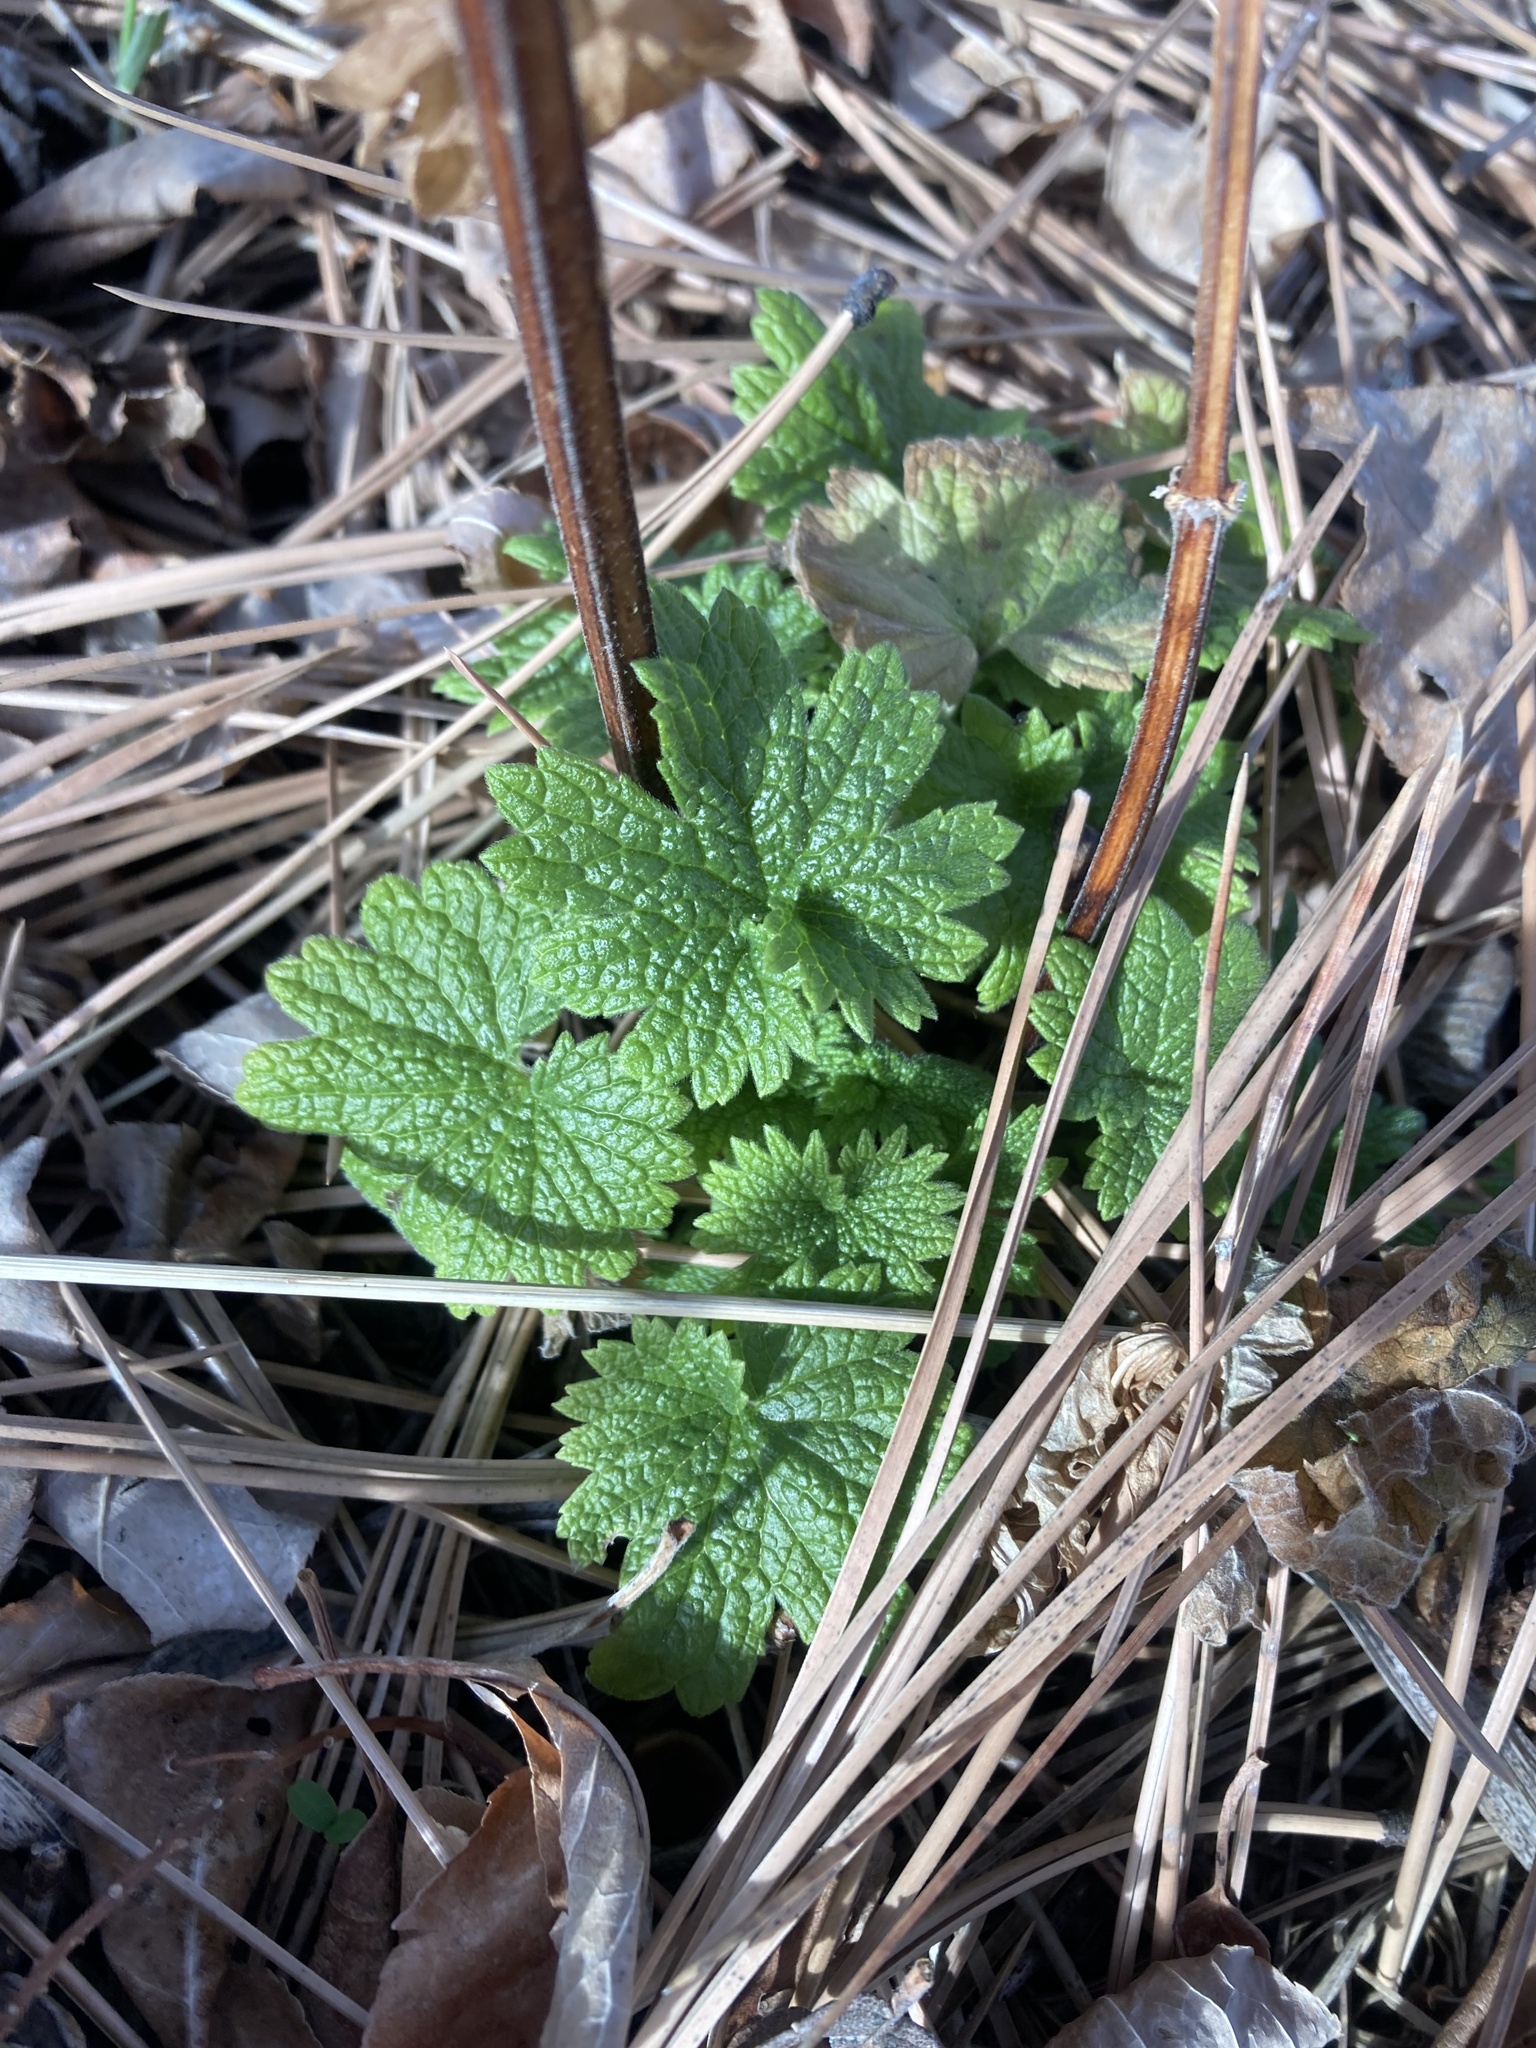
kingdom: Plantae
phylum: Tracheophyta
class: Magnoliopsida
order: Lamiales
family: Lamiaceae
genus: Leonurus
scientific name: Leonurus cardiaca
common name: Motherwort
